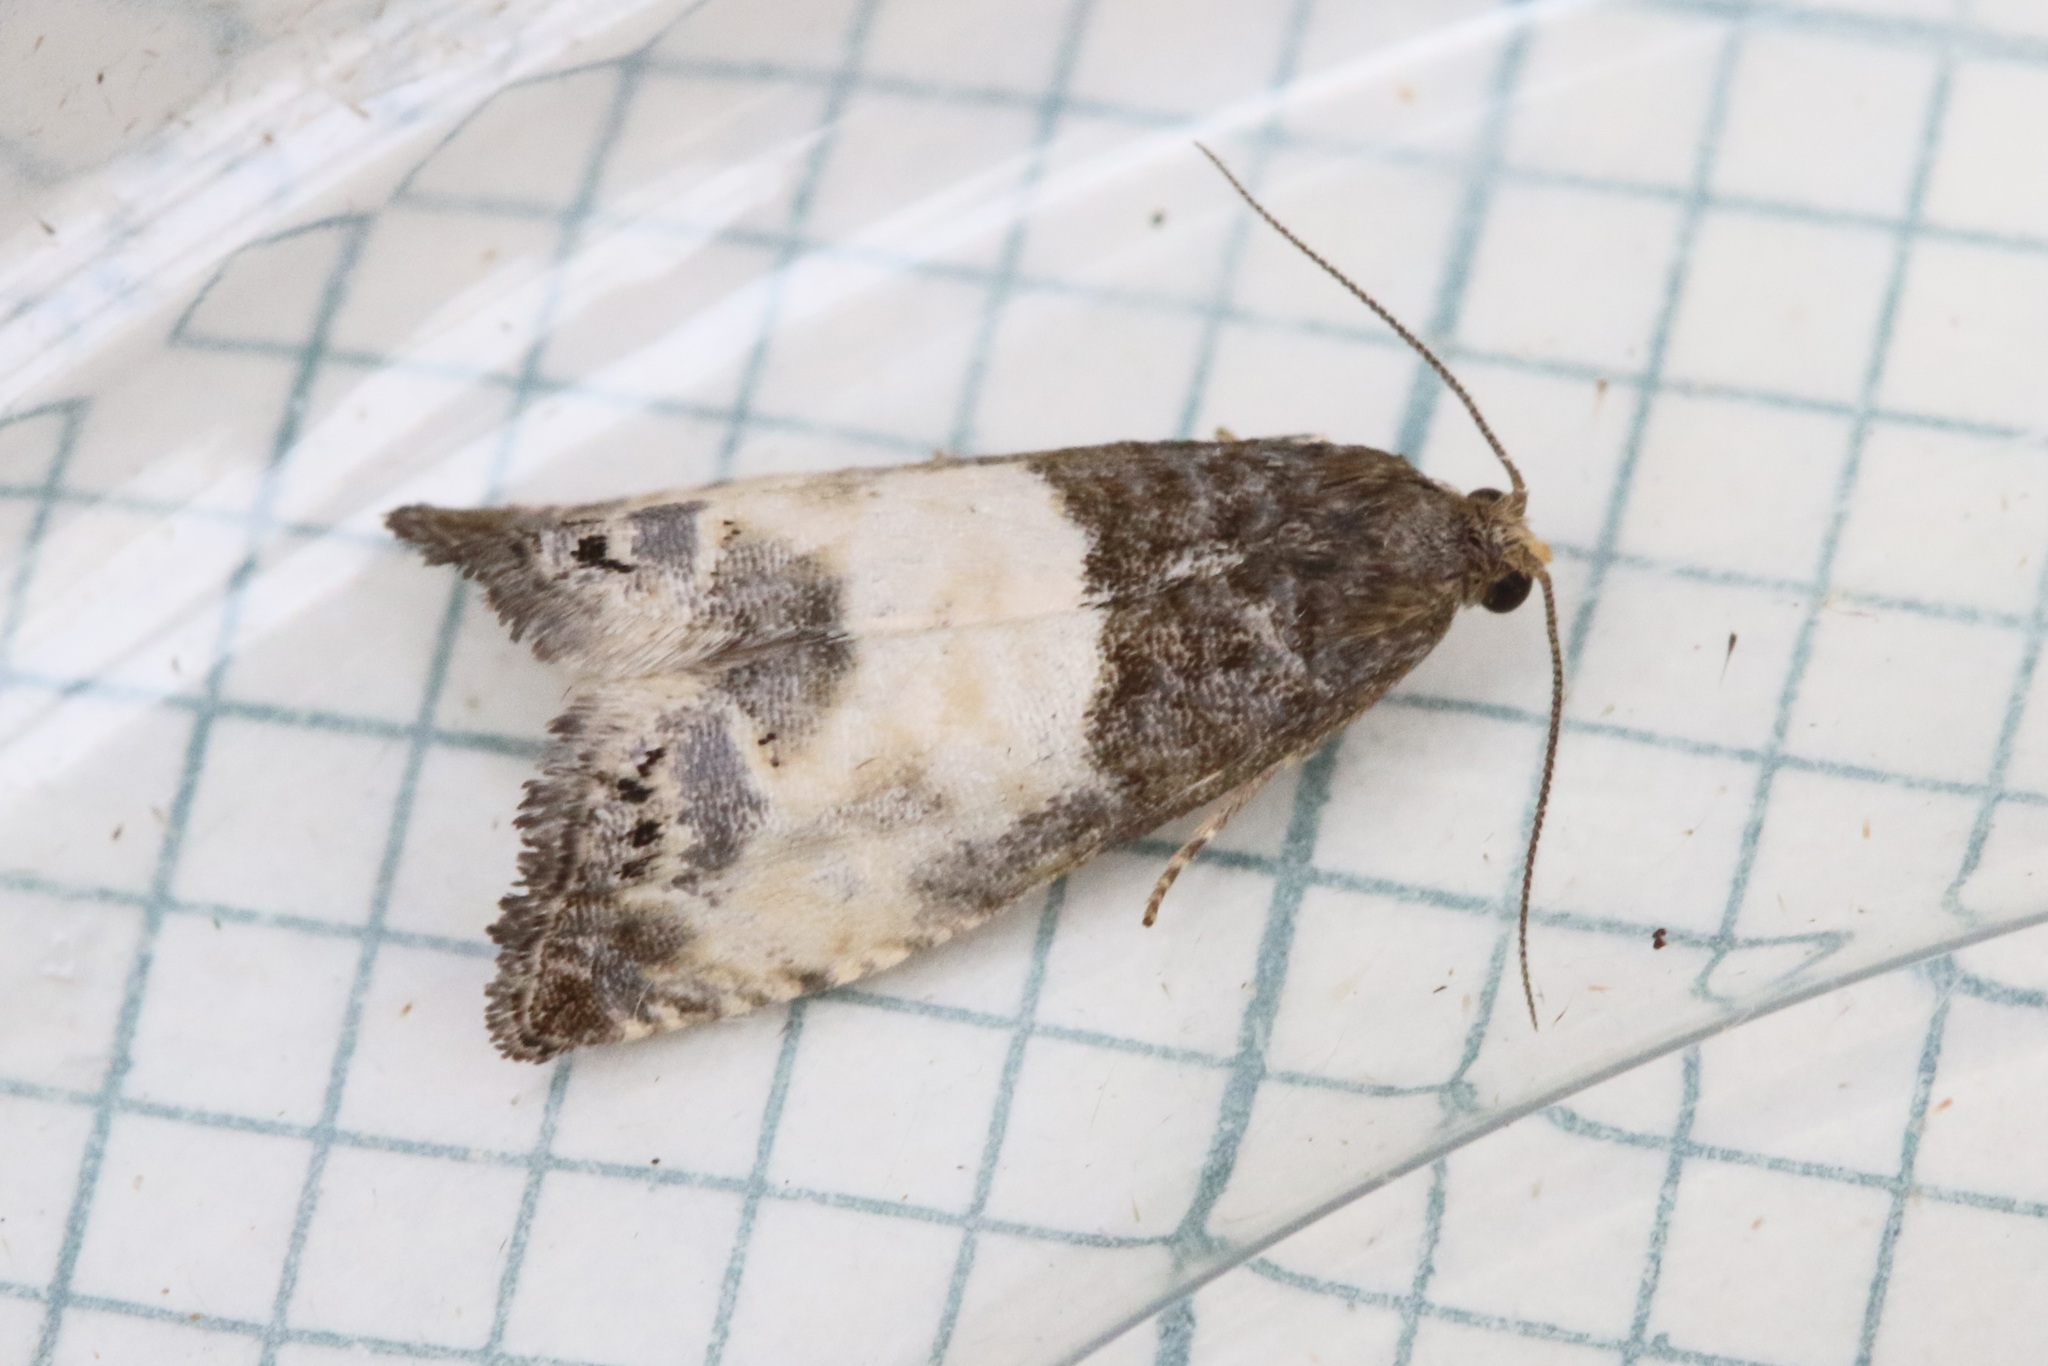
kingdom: Animalia
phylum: Arthropoda
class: Insecta
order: Lepidoptera
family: Tortricidae
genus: Notocelia
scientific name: Notocelia cynosbatella
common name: Yellow-faced bell moth
